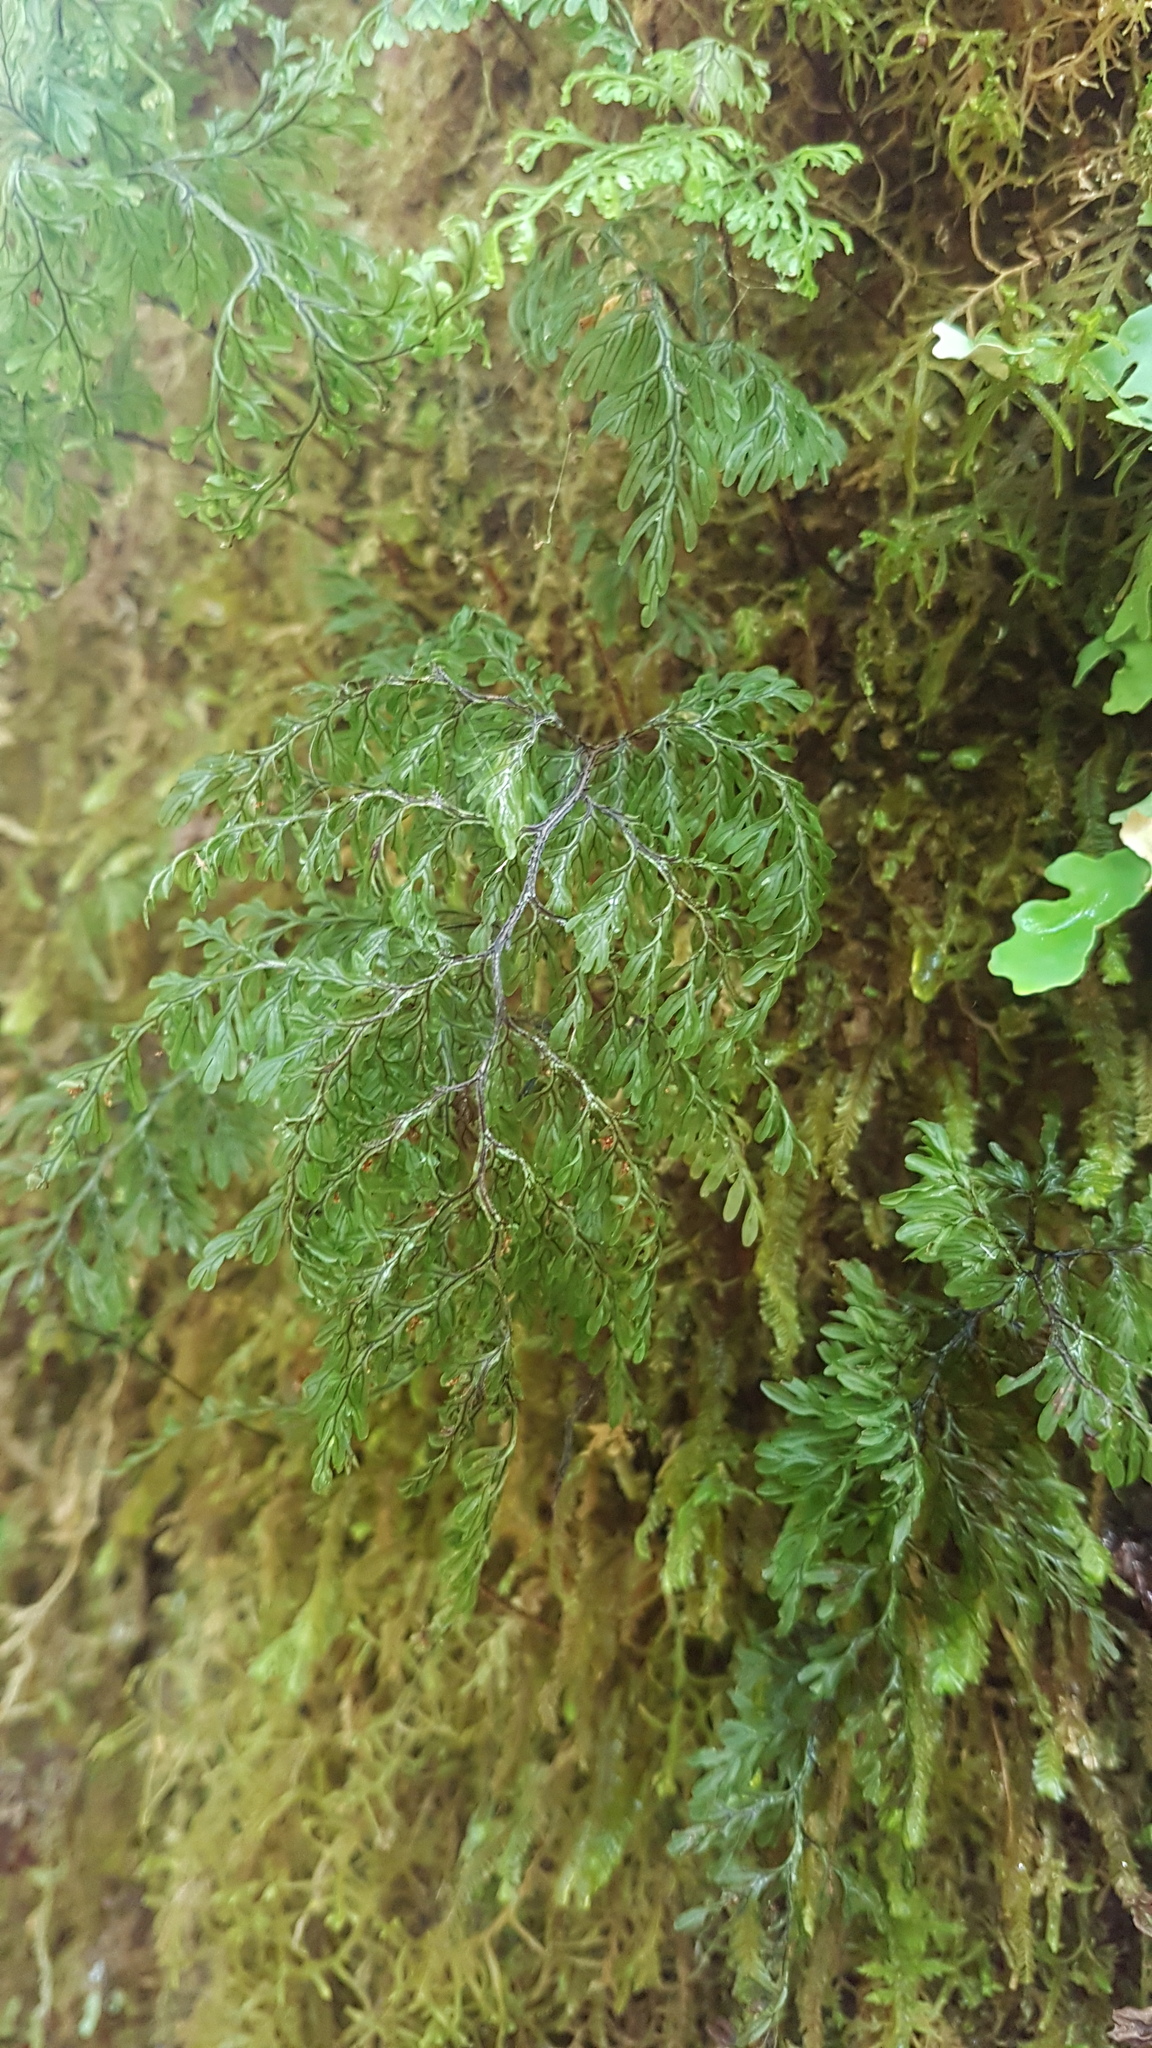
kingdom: Plantae
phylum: Tracheophyta
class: Polypodiopsida
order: Hymenophyllales
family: Hymenophyllaceae
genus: Hymenophyllum
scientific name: Hymenophyllum villosum
